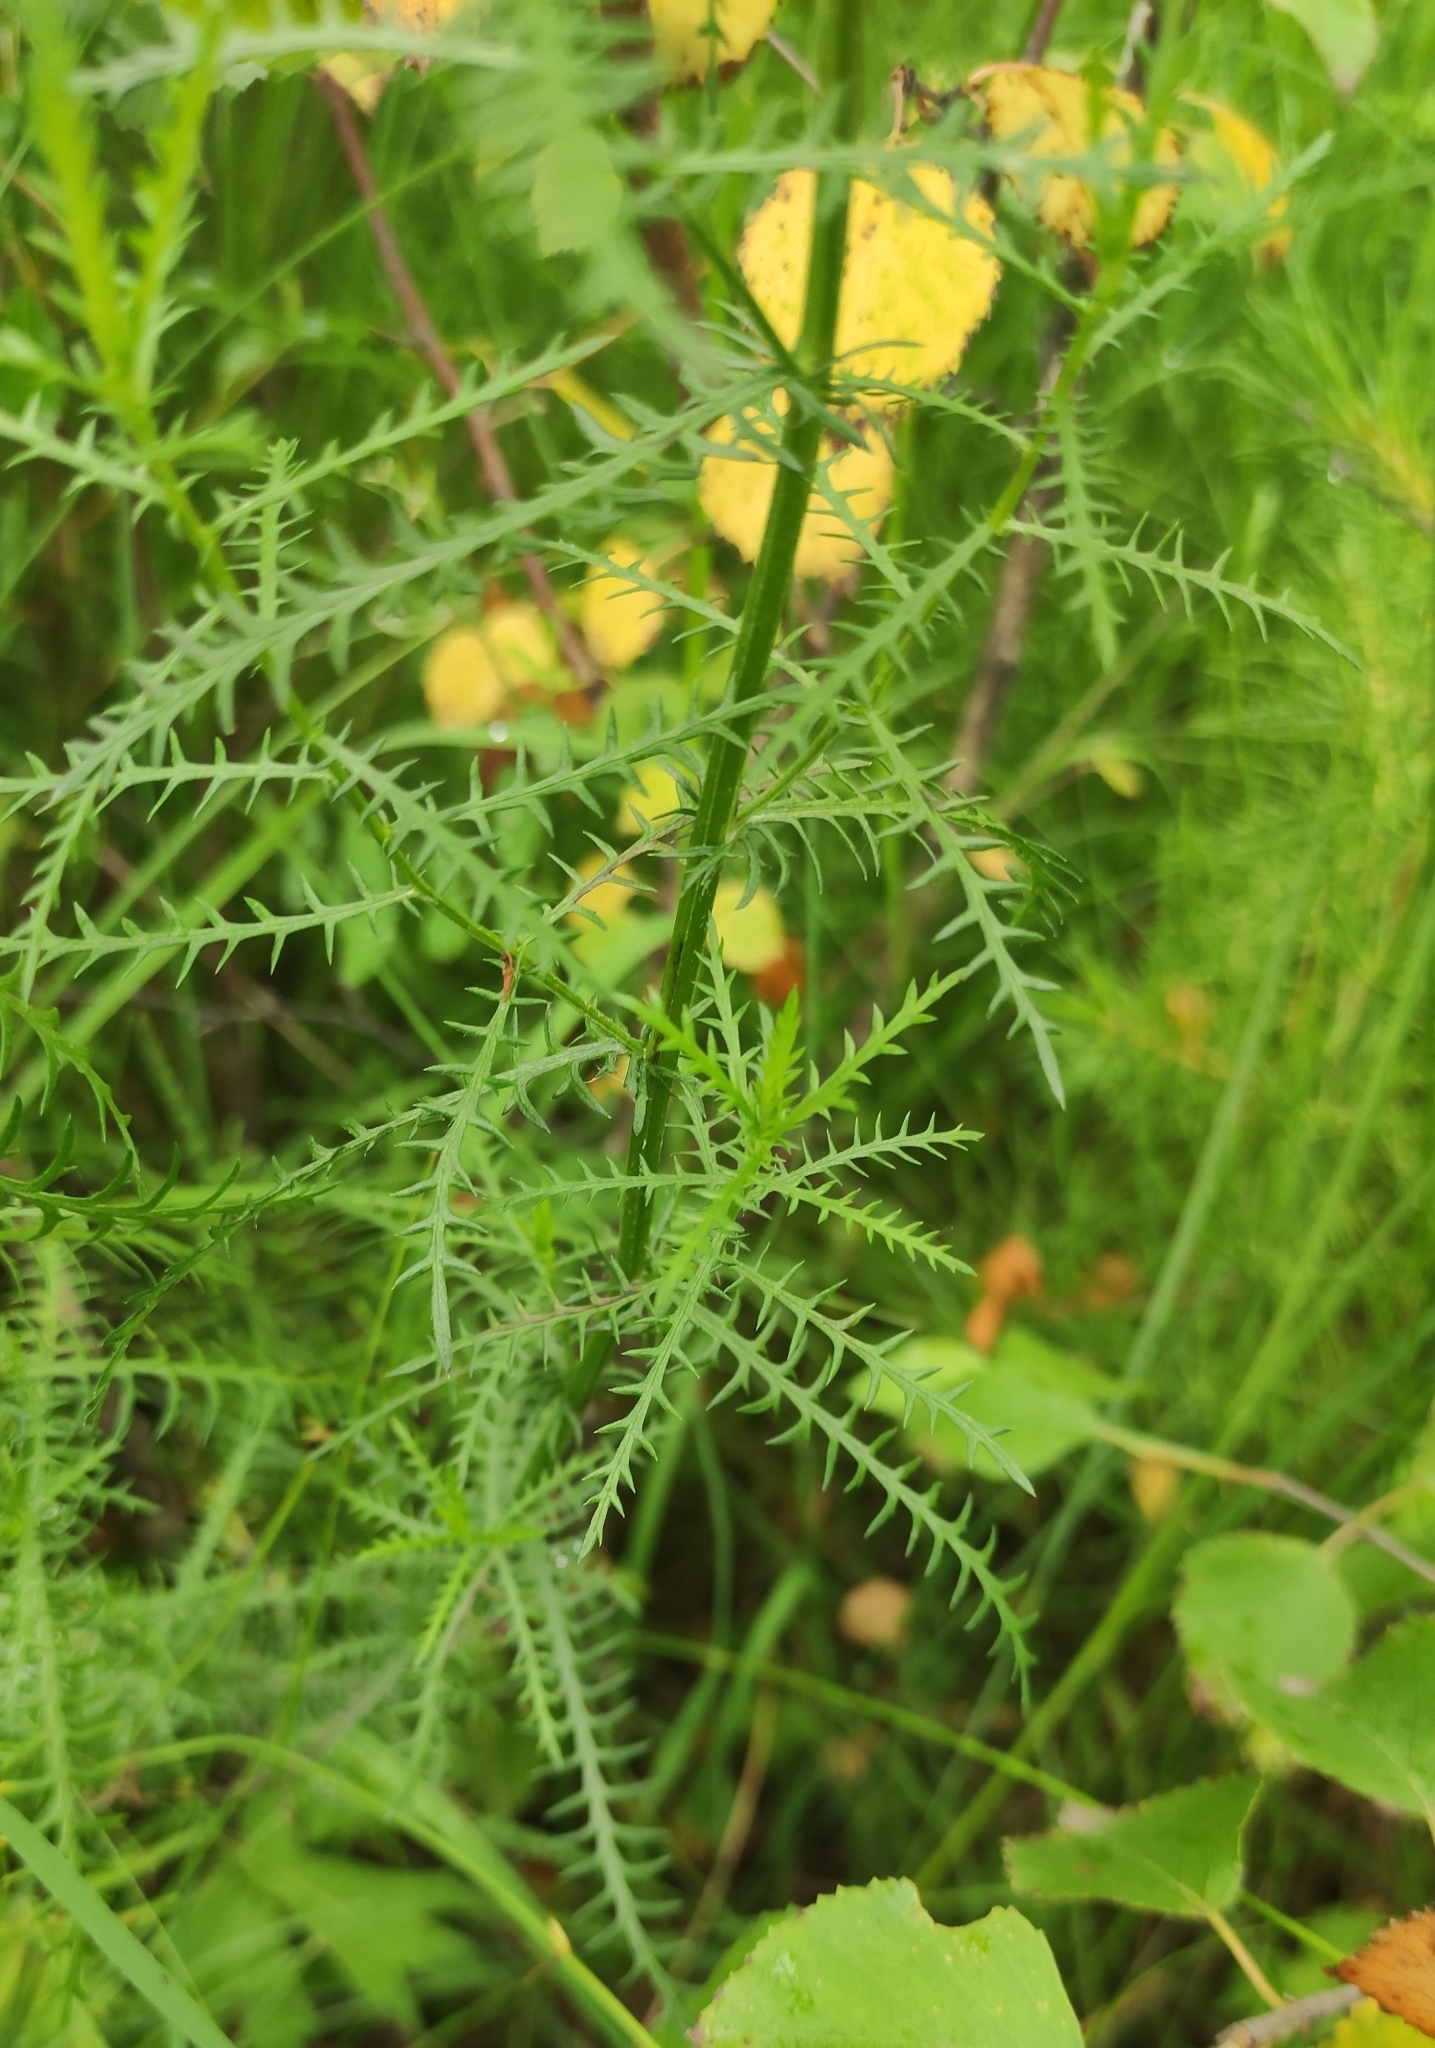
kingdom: Plantae
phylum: Tracheophyta
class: Magnoliopsida
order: Asterales
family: Asteraceae
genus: Achillea
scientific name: Achillea impatiens
